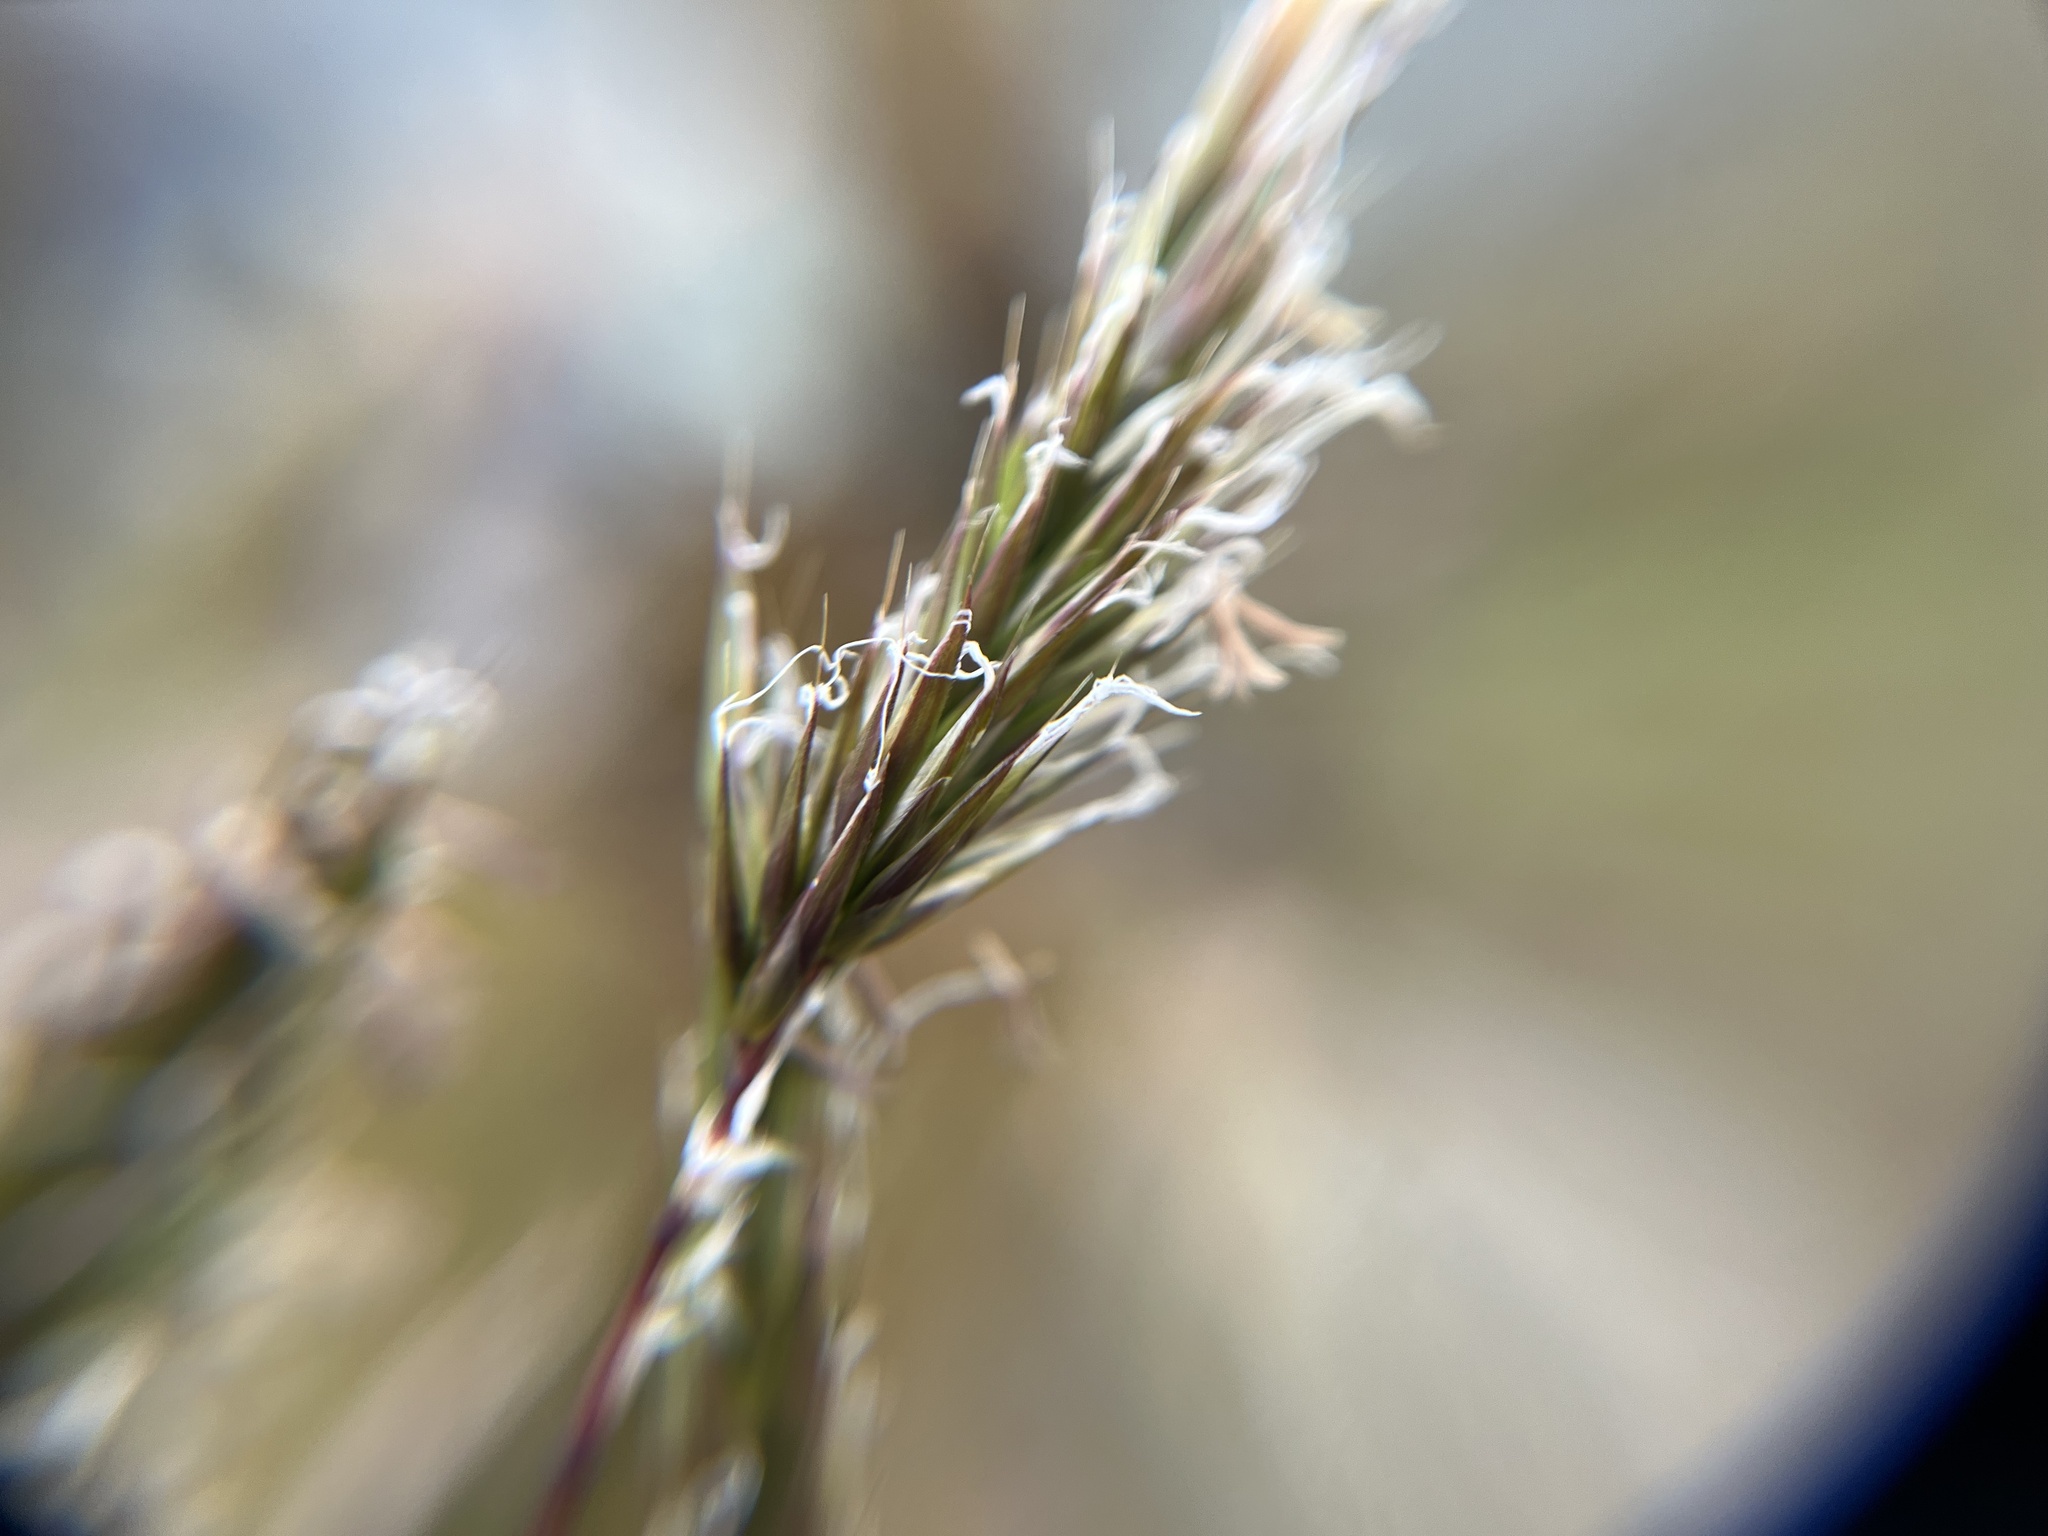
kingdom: Plantae
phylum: Tracheophyta
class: Liliopsida
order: Poales
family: Poaceae
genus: Anthoxanthum
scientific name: Anthoxanthum odoratum
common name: Sweet vernalgrass
